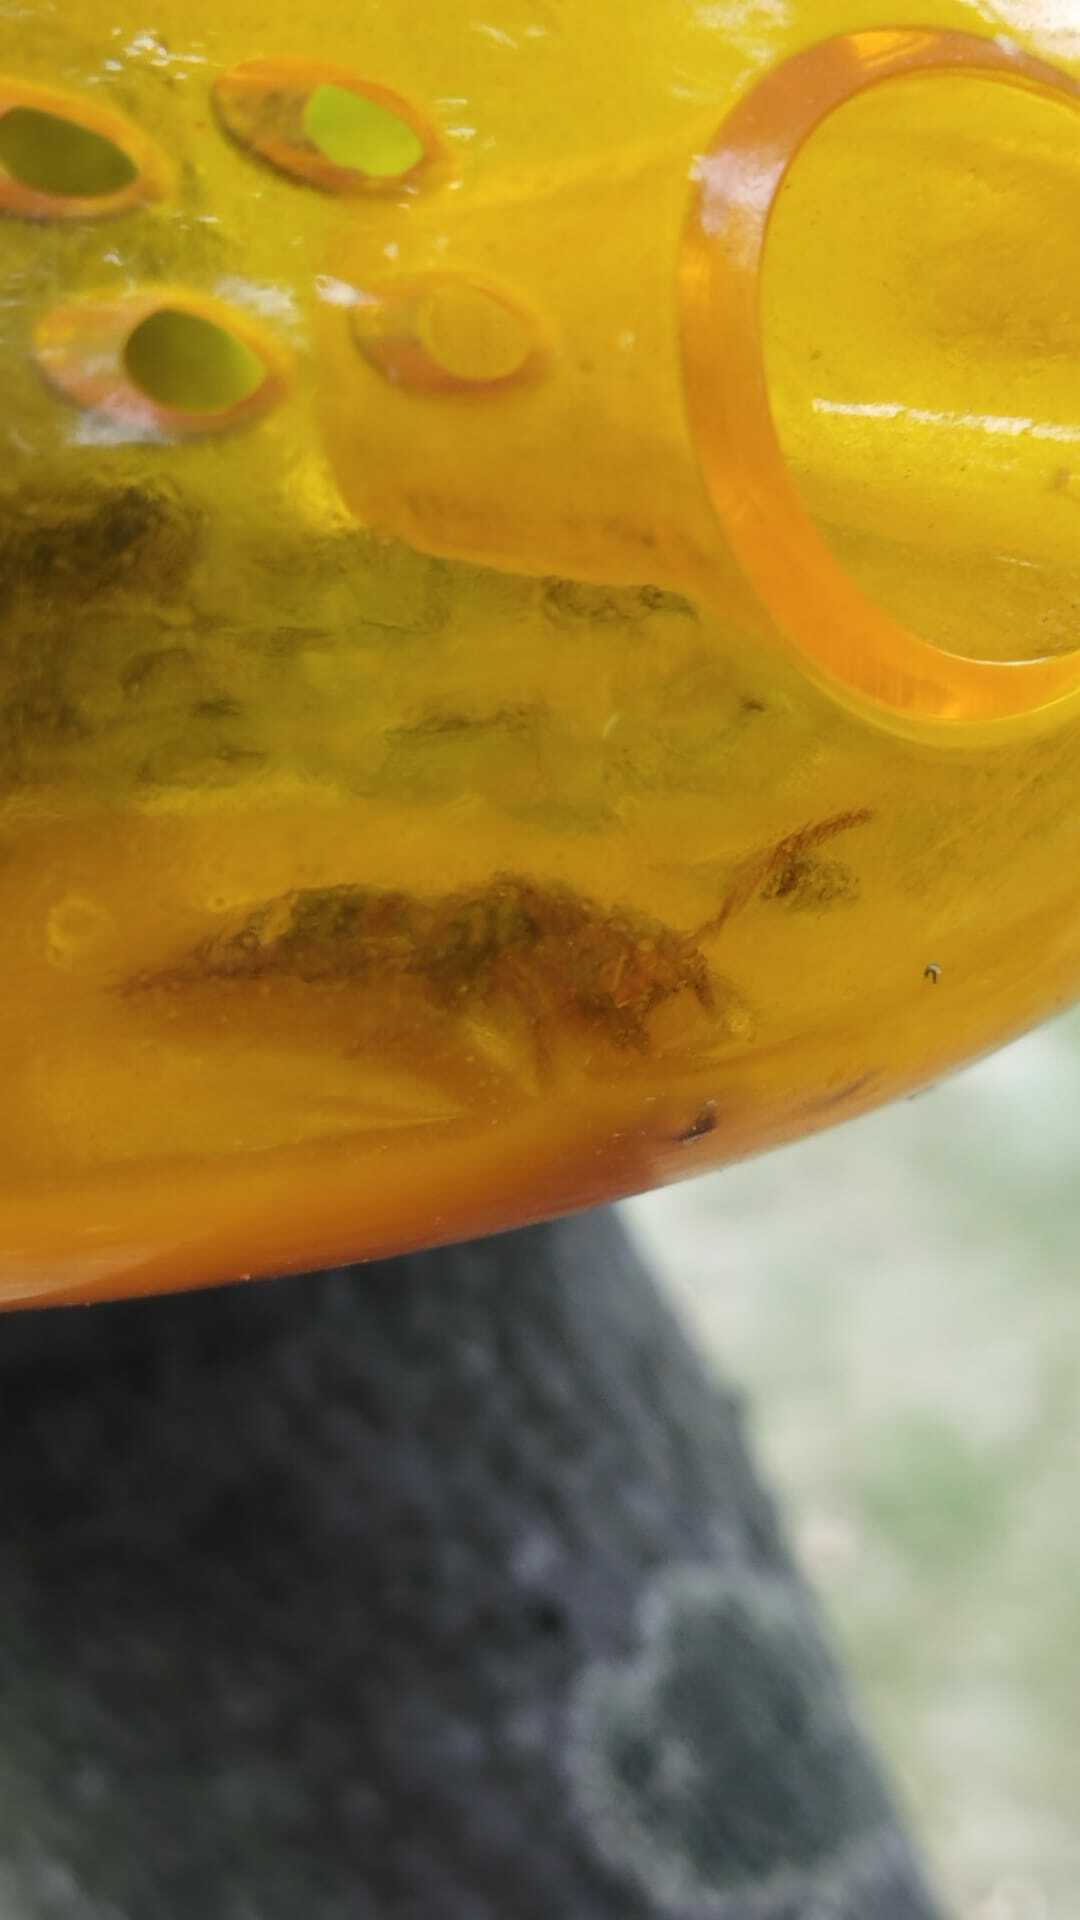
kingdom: Animalia
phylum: Arthropoda
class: Insecta
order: Hymenoptera
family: Vespidae
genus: Vespa
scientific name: Vespa crabro
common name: Hornet
